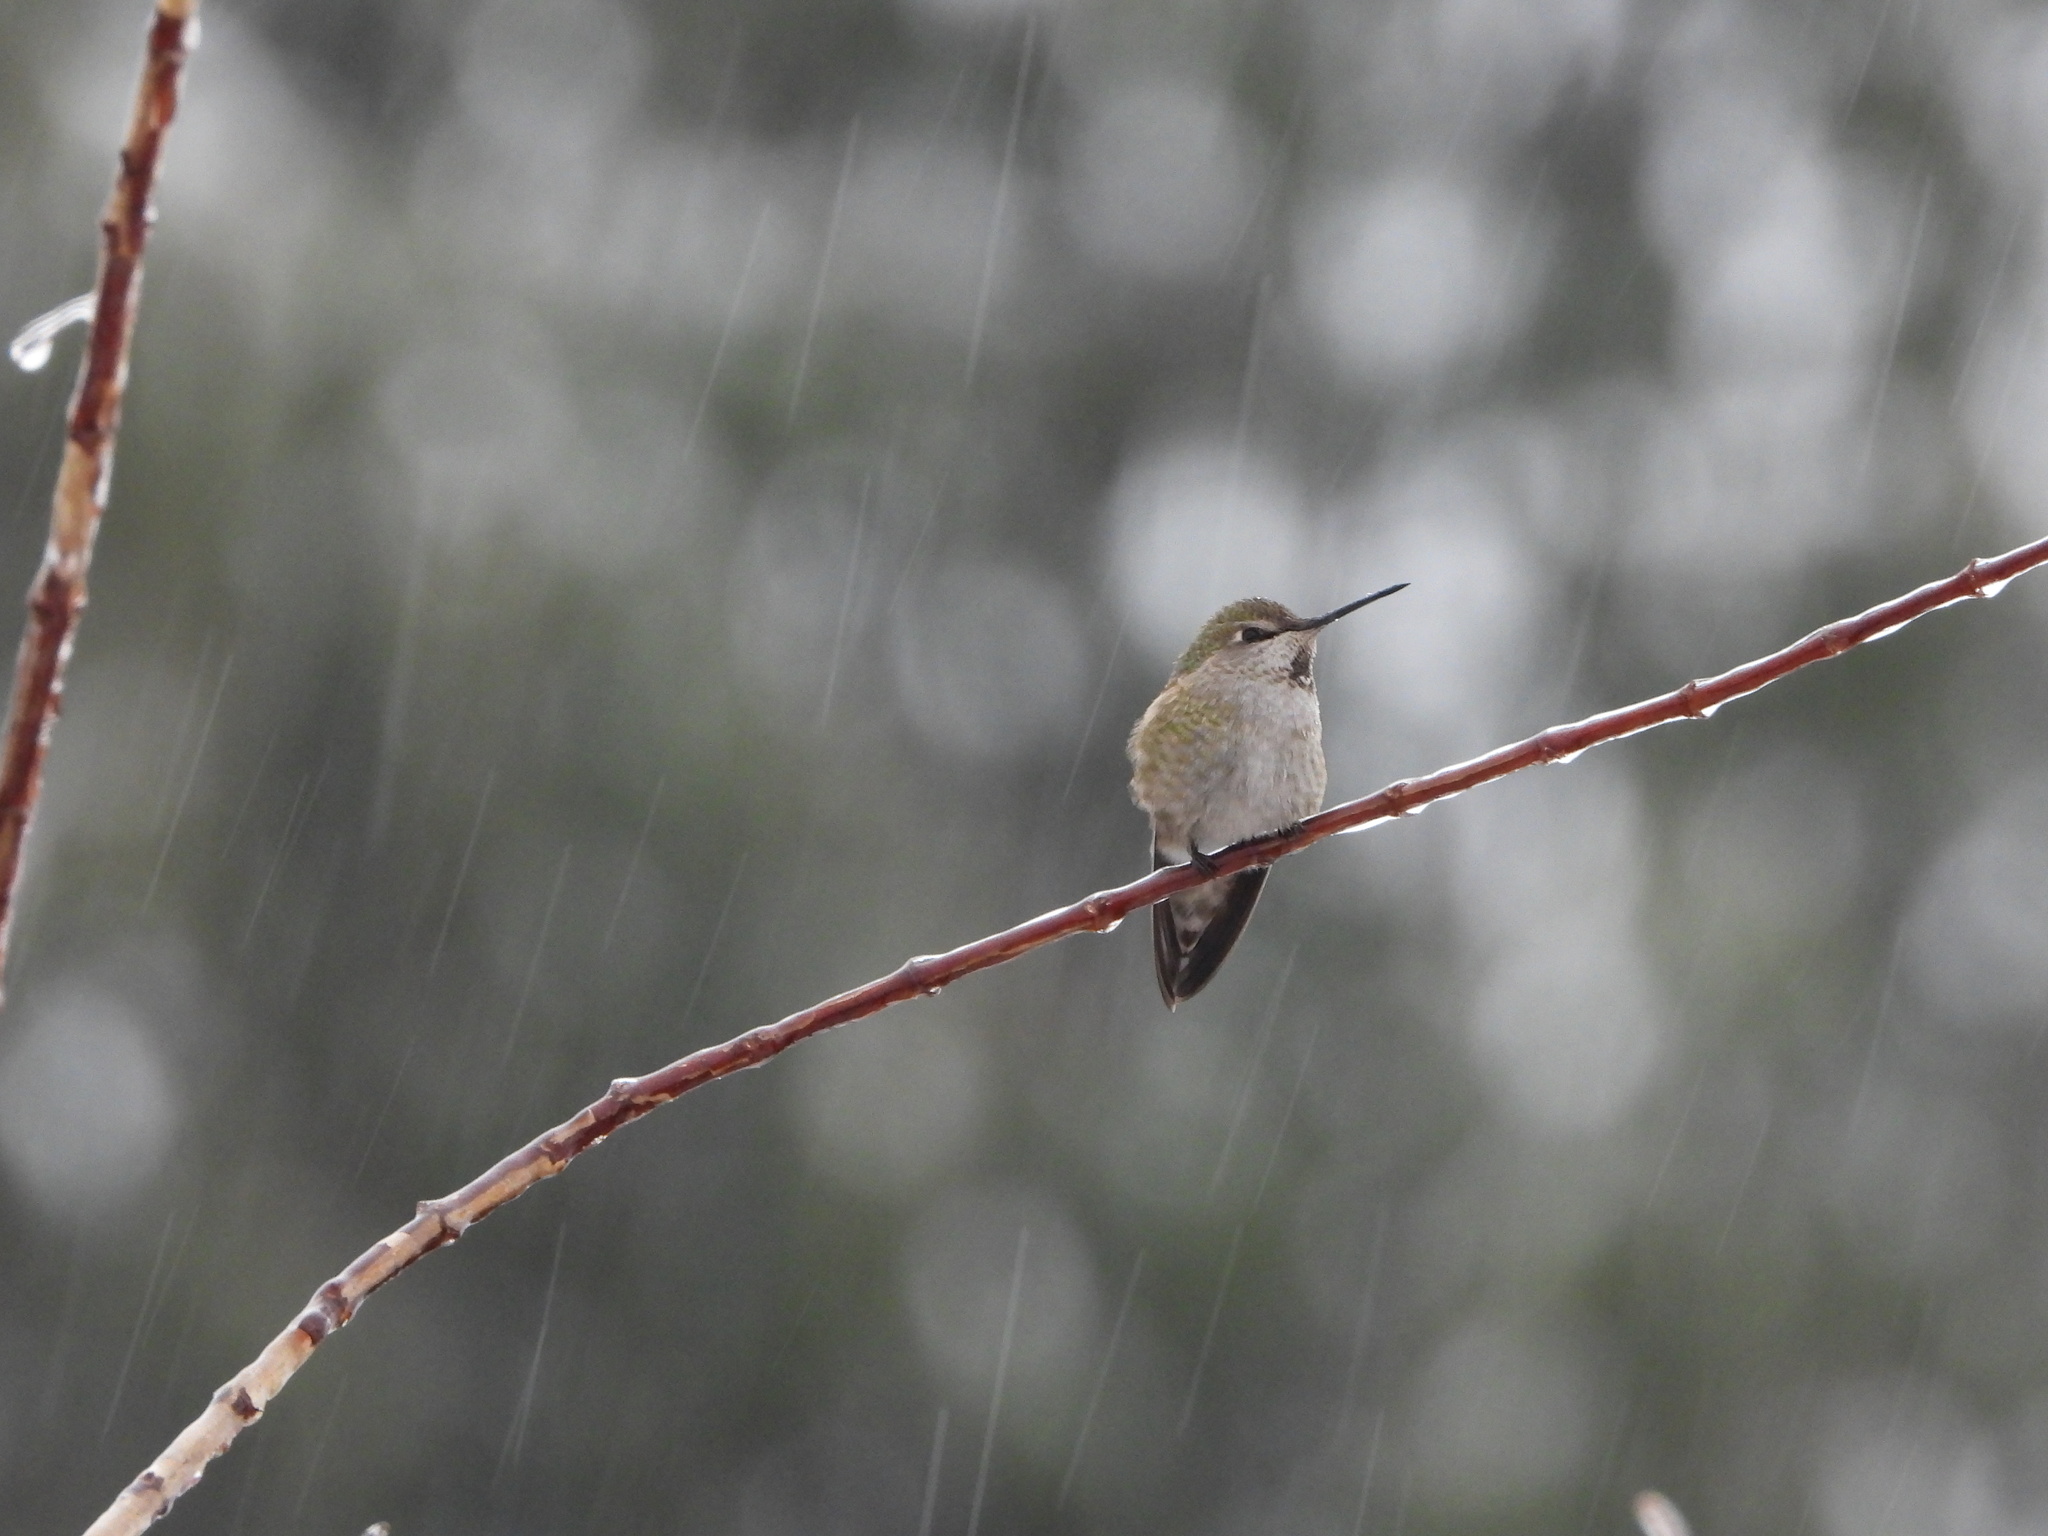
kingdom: Animalia
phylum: Chordata
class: Aves
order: Apodiformes
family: Trochilidae
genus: Calypte
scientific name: Calypte anna
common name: Anna's hummingbird
